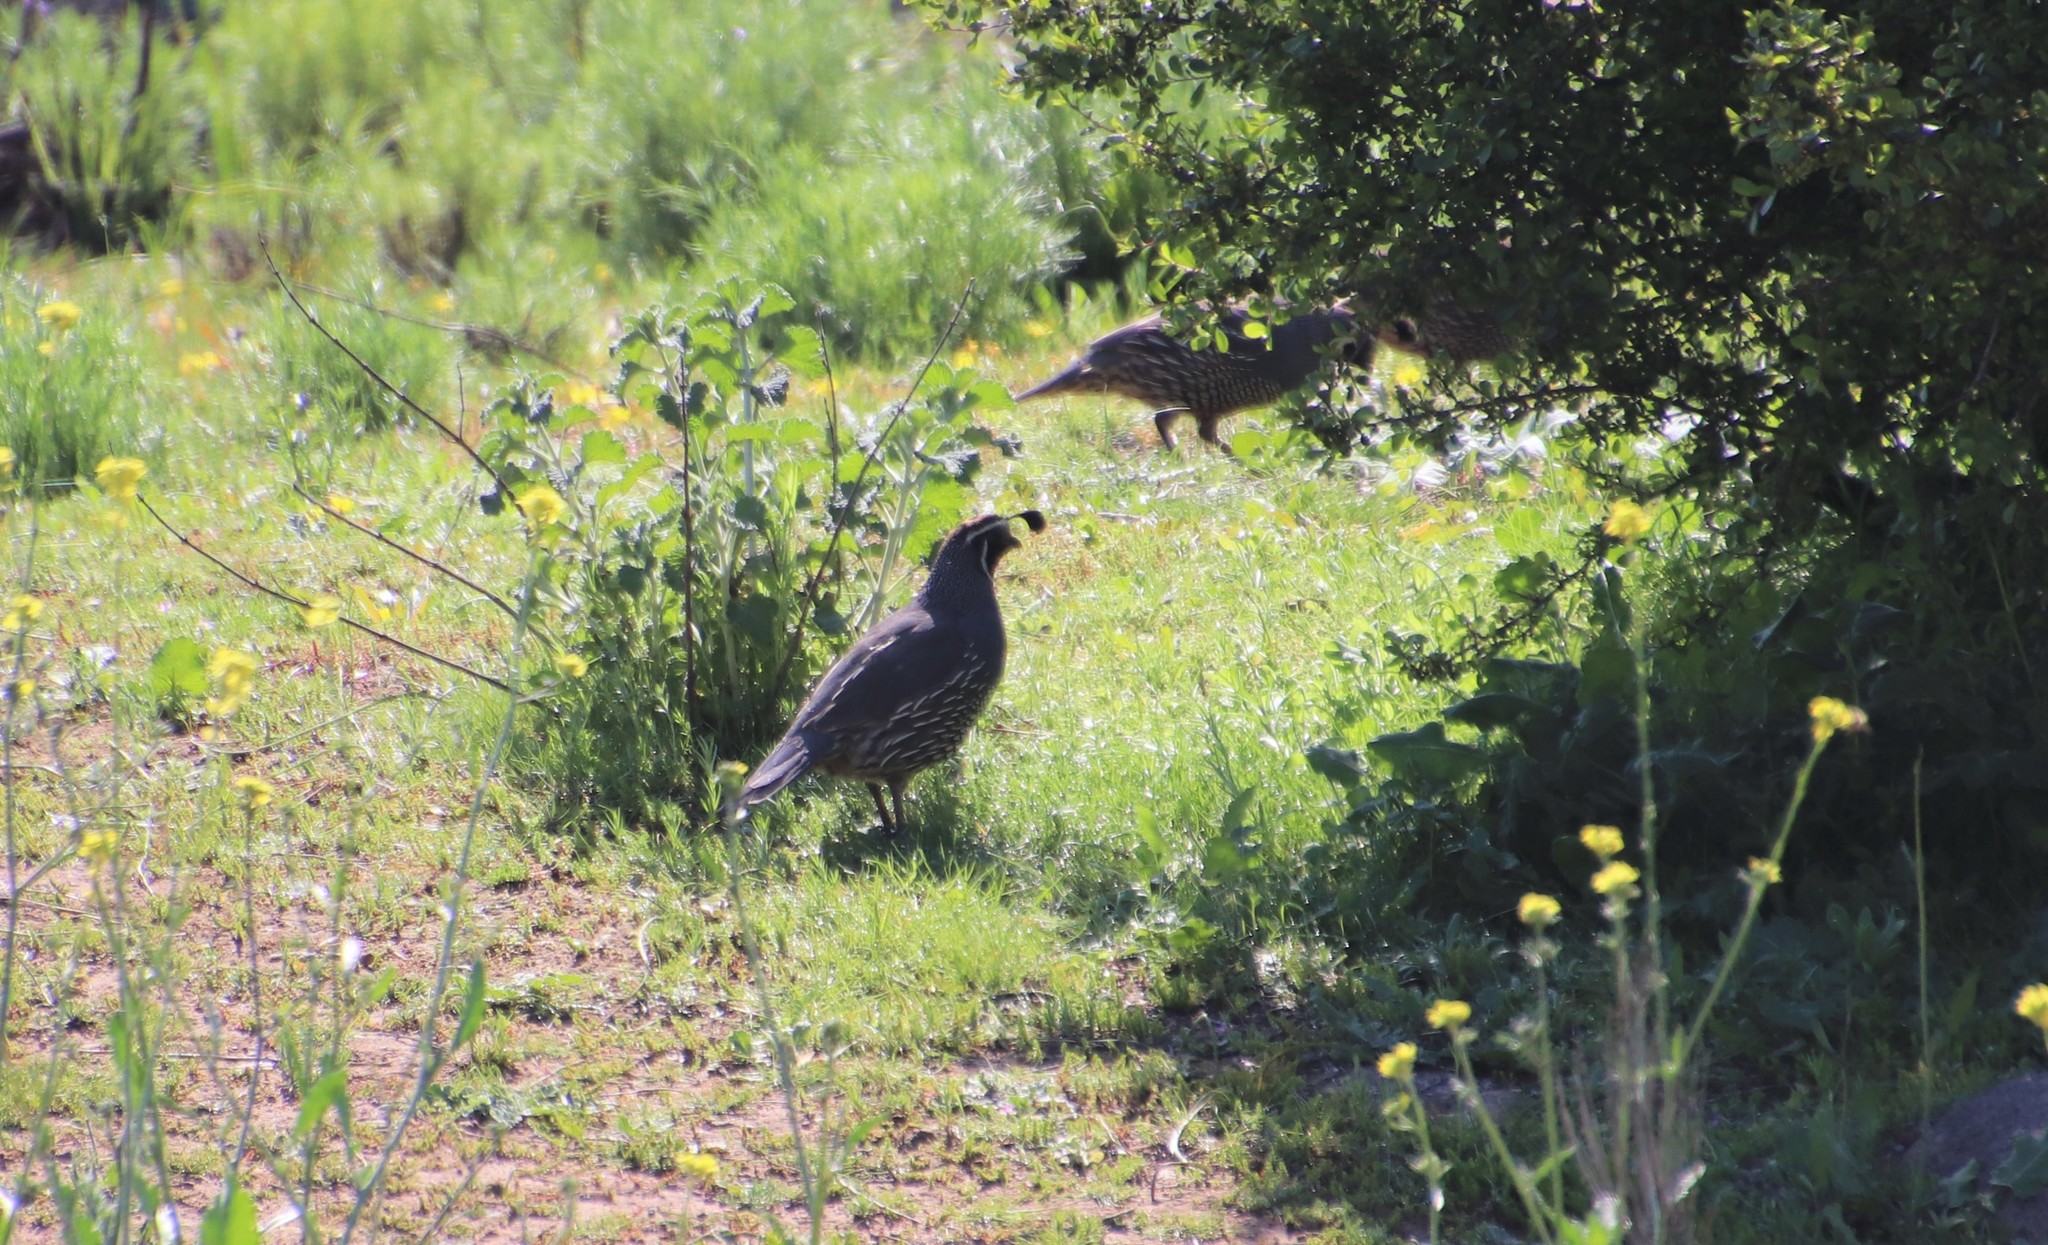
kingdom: Animalia
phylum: Chordata
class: Aves
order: Galliformes
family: Odontophoridae
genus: Callipepla
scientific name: Callipepla californica
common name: California quail
